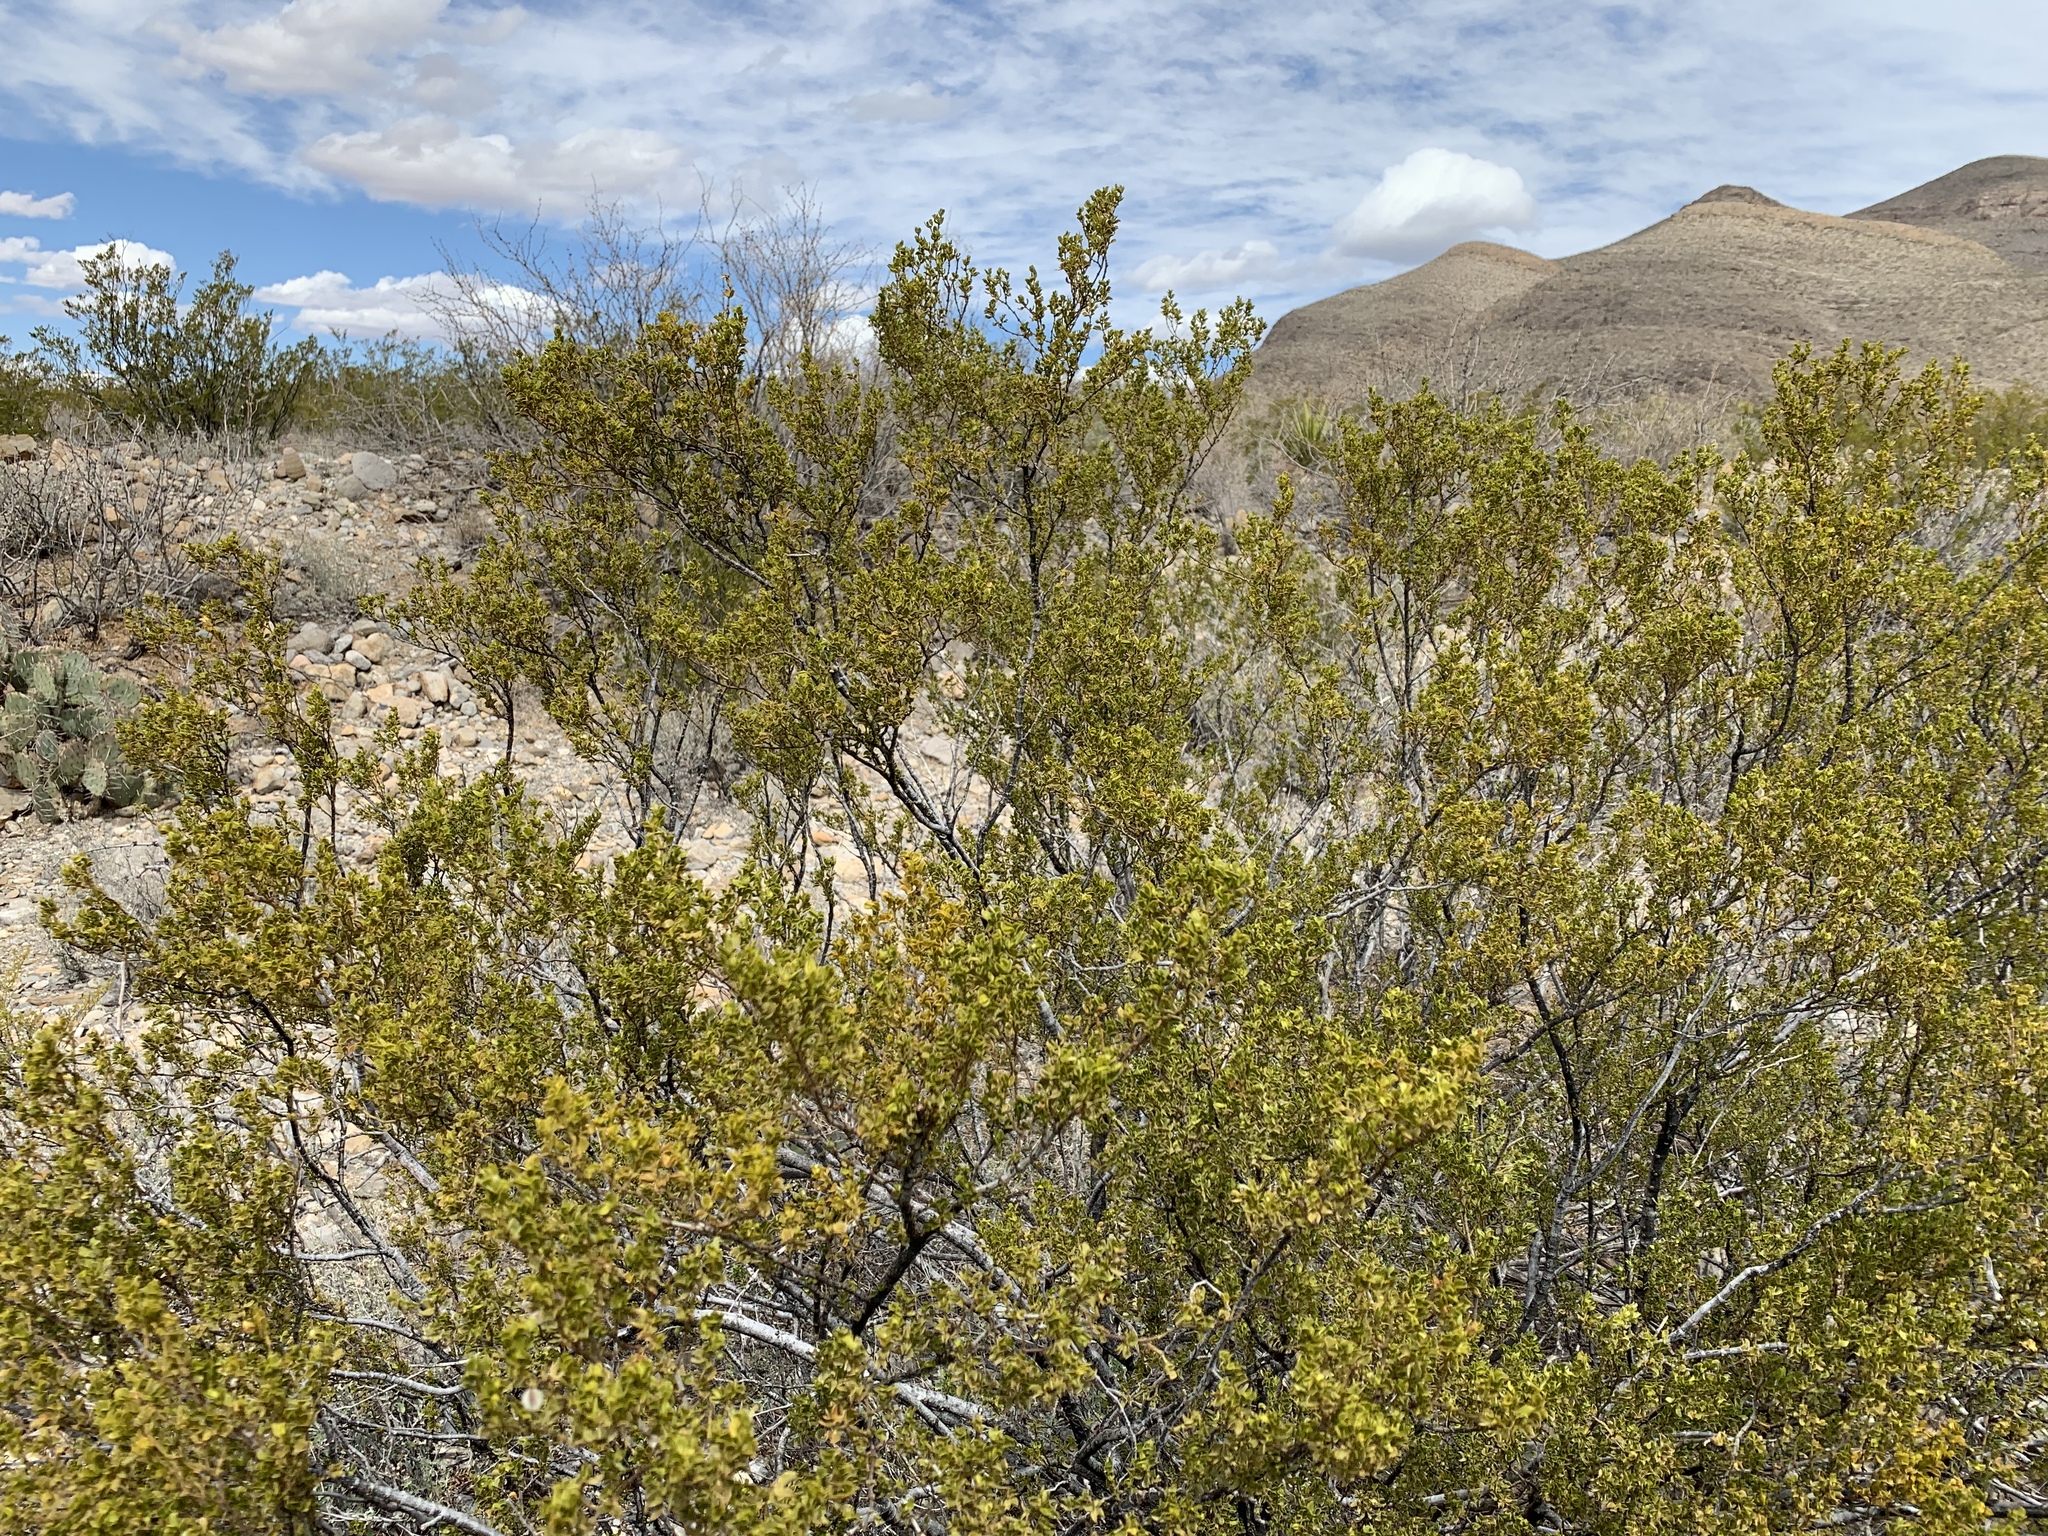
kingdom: Plantae
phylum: Tracheophyta
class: Magnoliopsida
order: Zygophyllales
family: Zygophyllaceae
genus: Larrea
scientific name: Larrea tridentata
